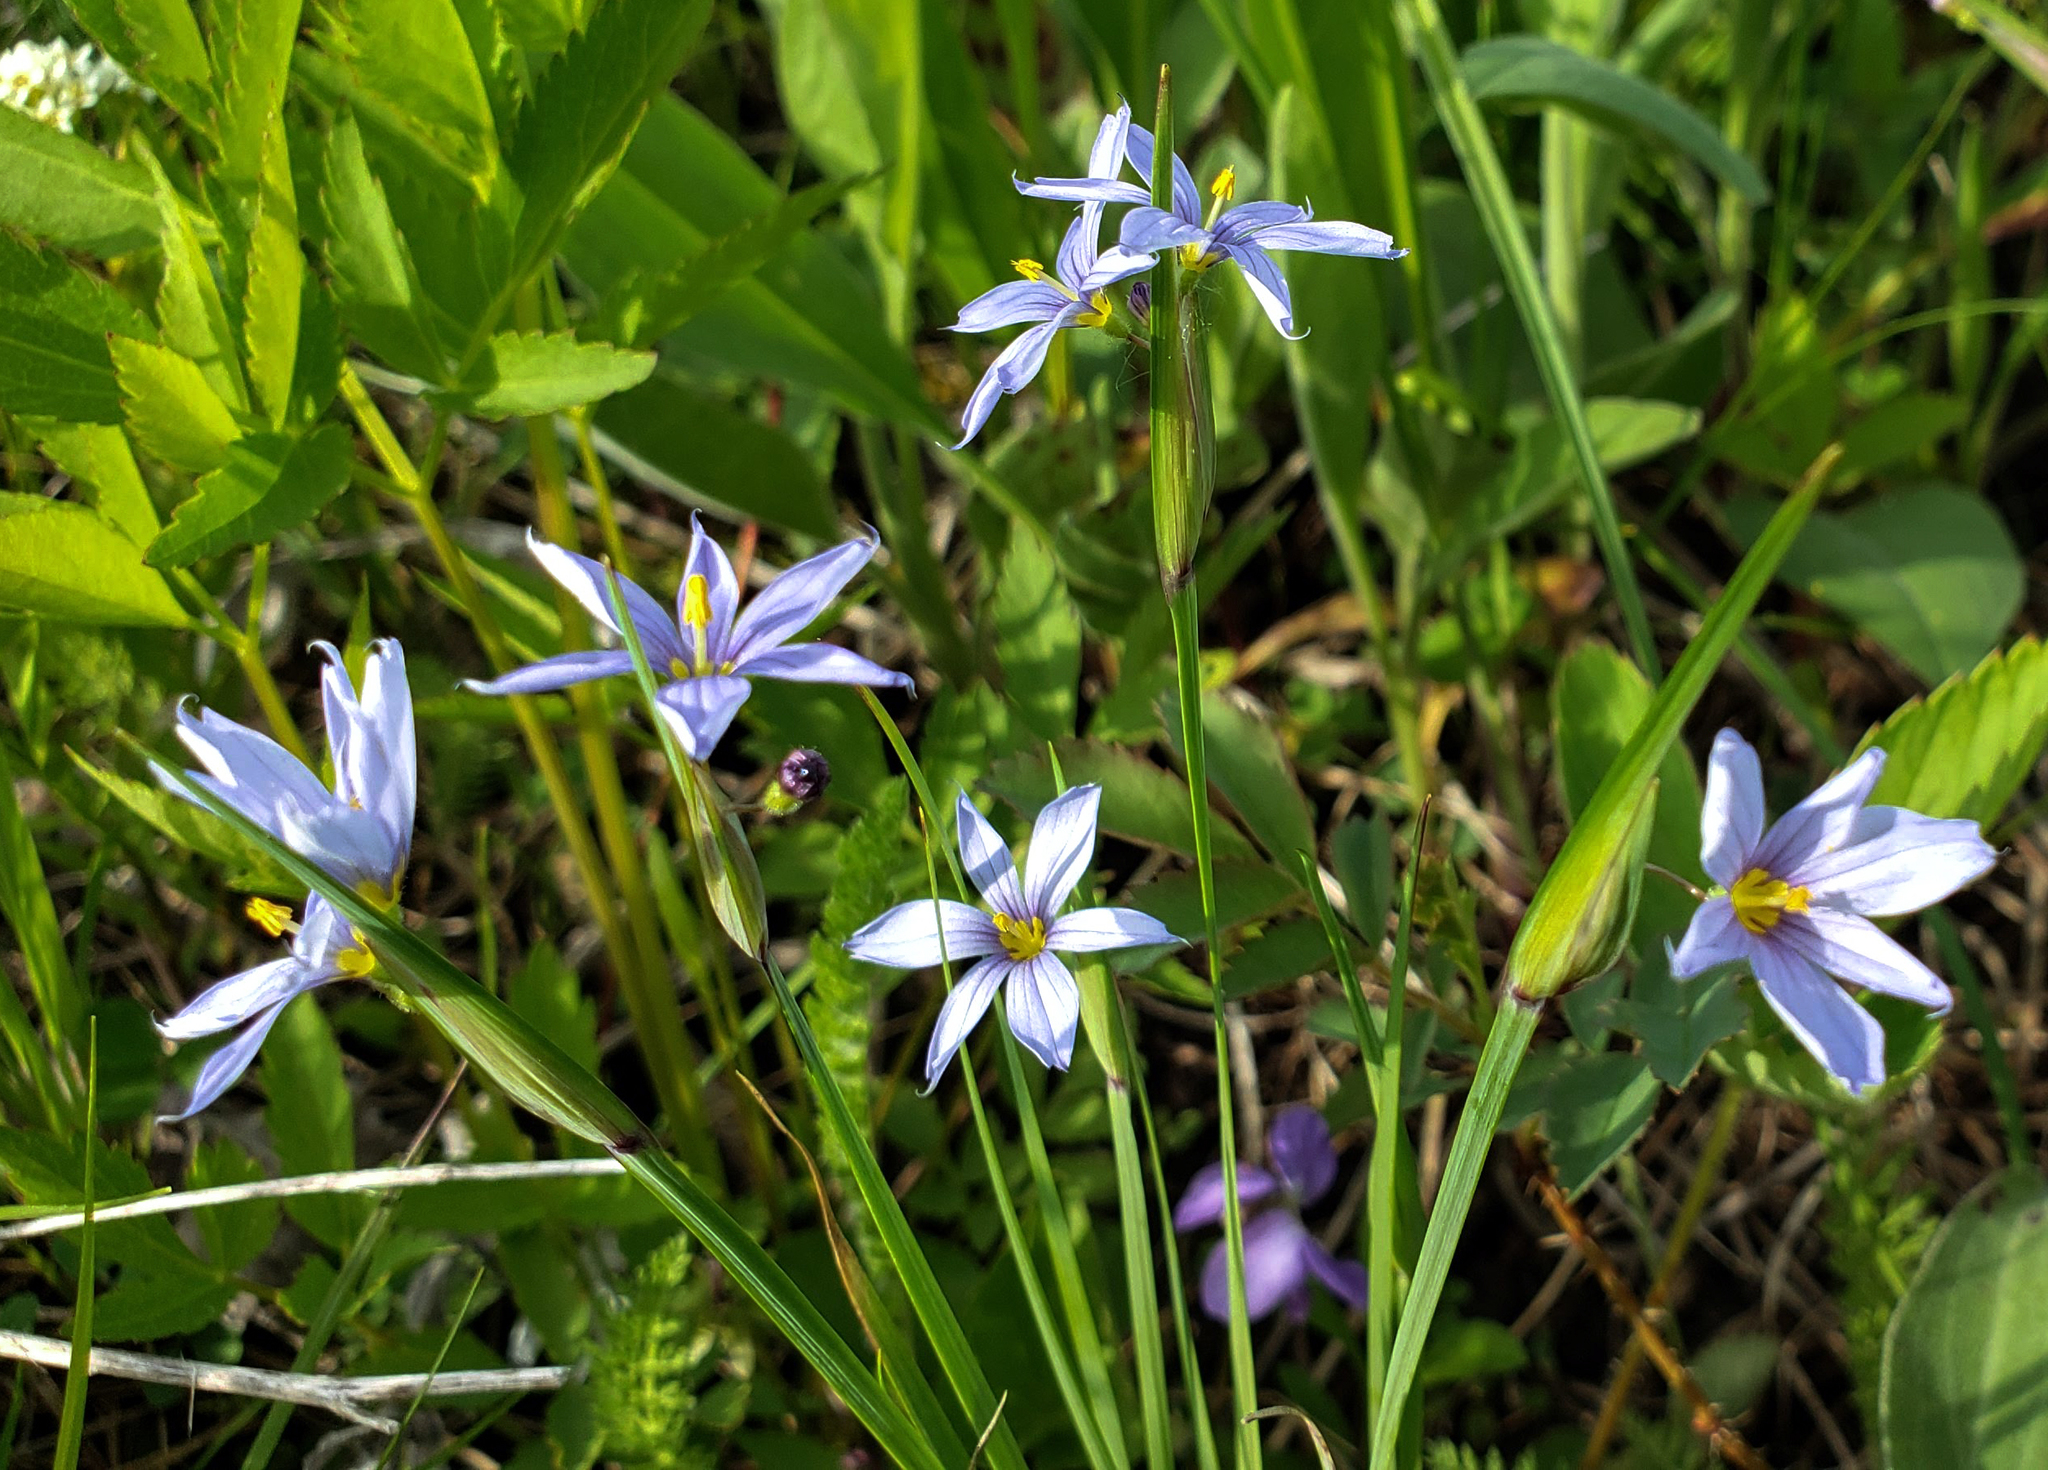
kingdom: Plantae
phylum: Tracheophyta
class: Liliopsida
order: Asparagales
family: Iridaceae
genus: Sisyrinchium
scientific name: Sisyrinchium campestre
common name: Prairie blue-eyed-grass
